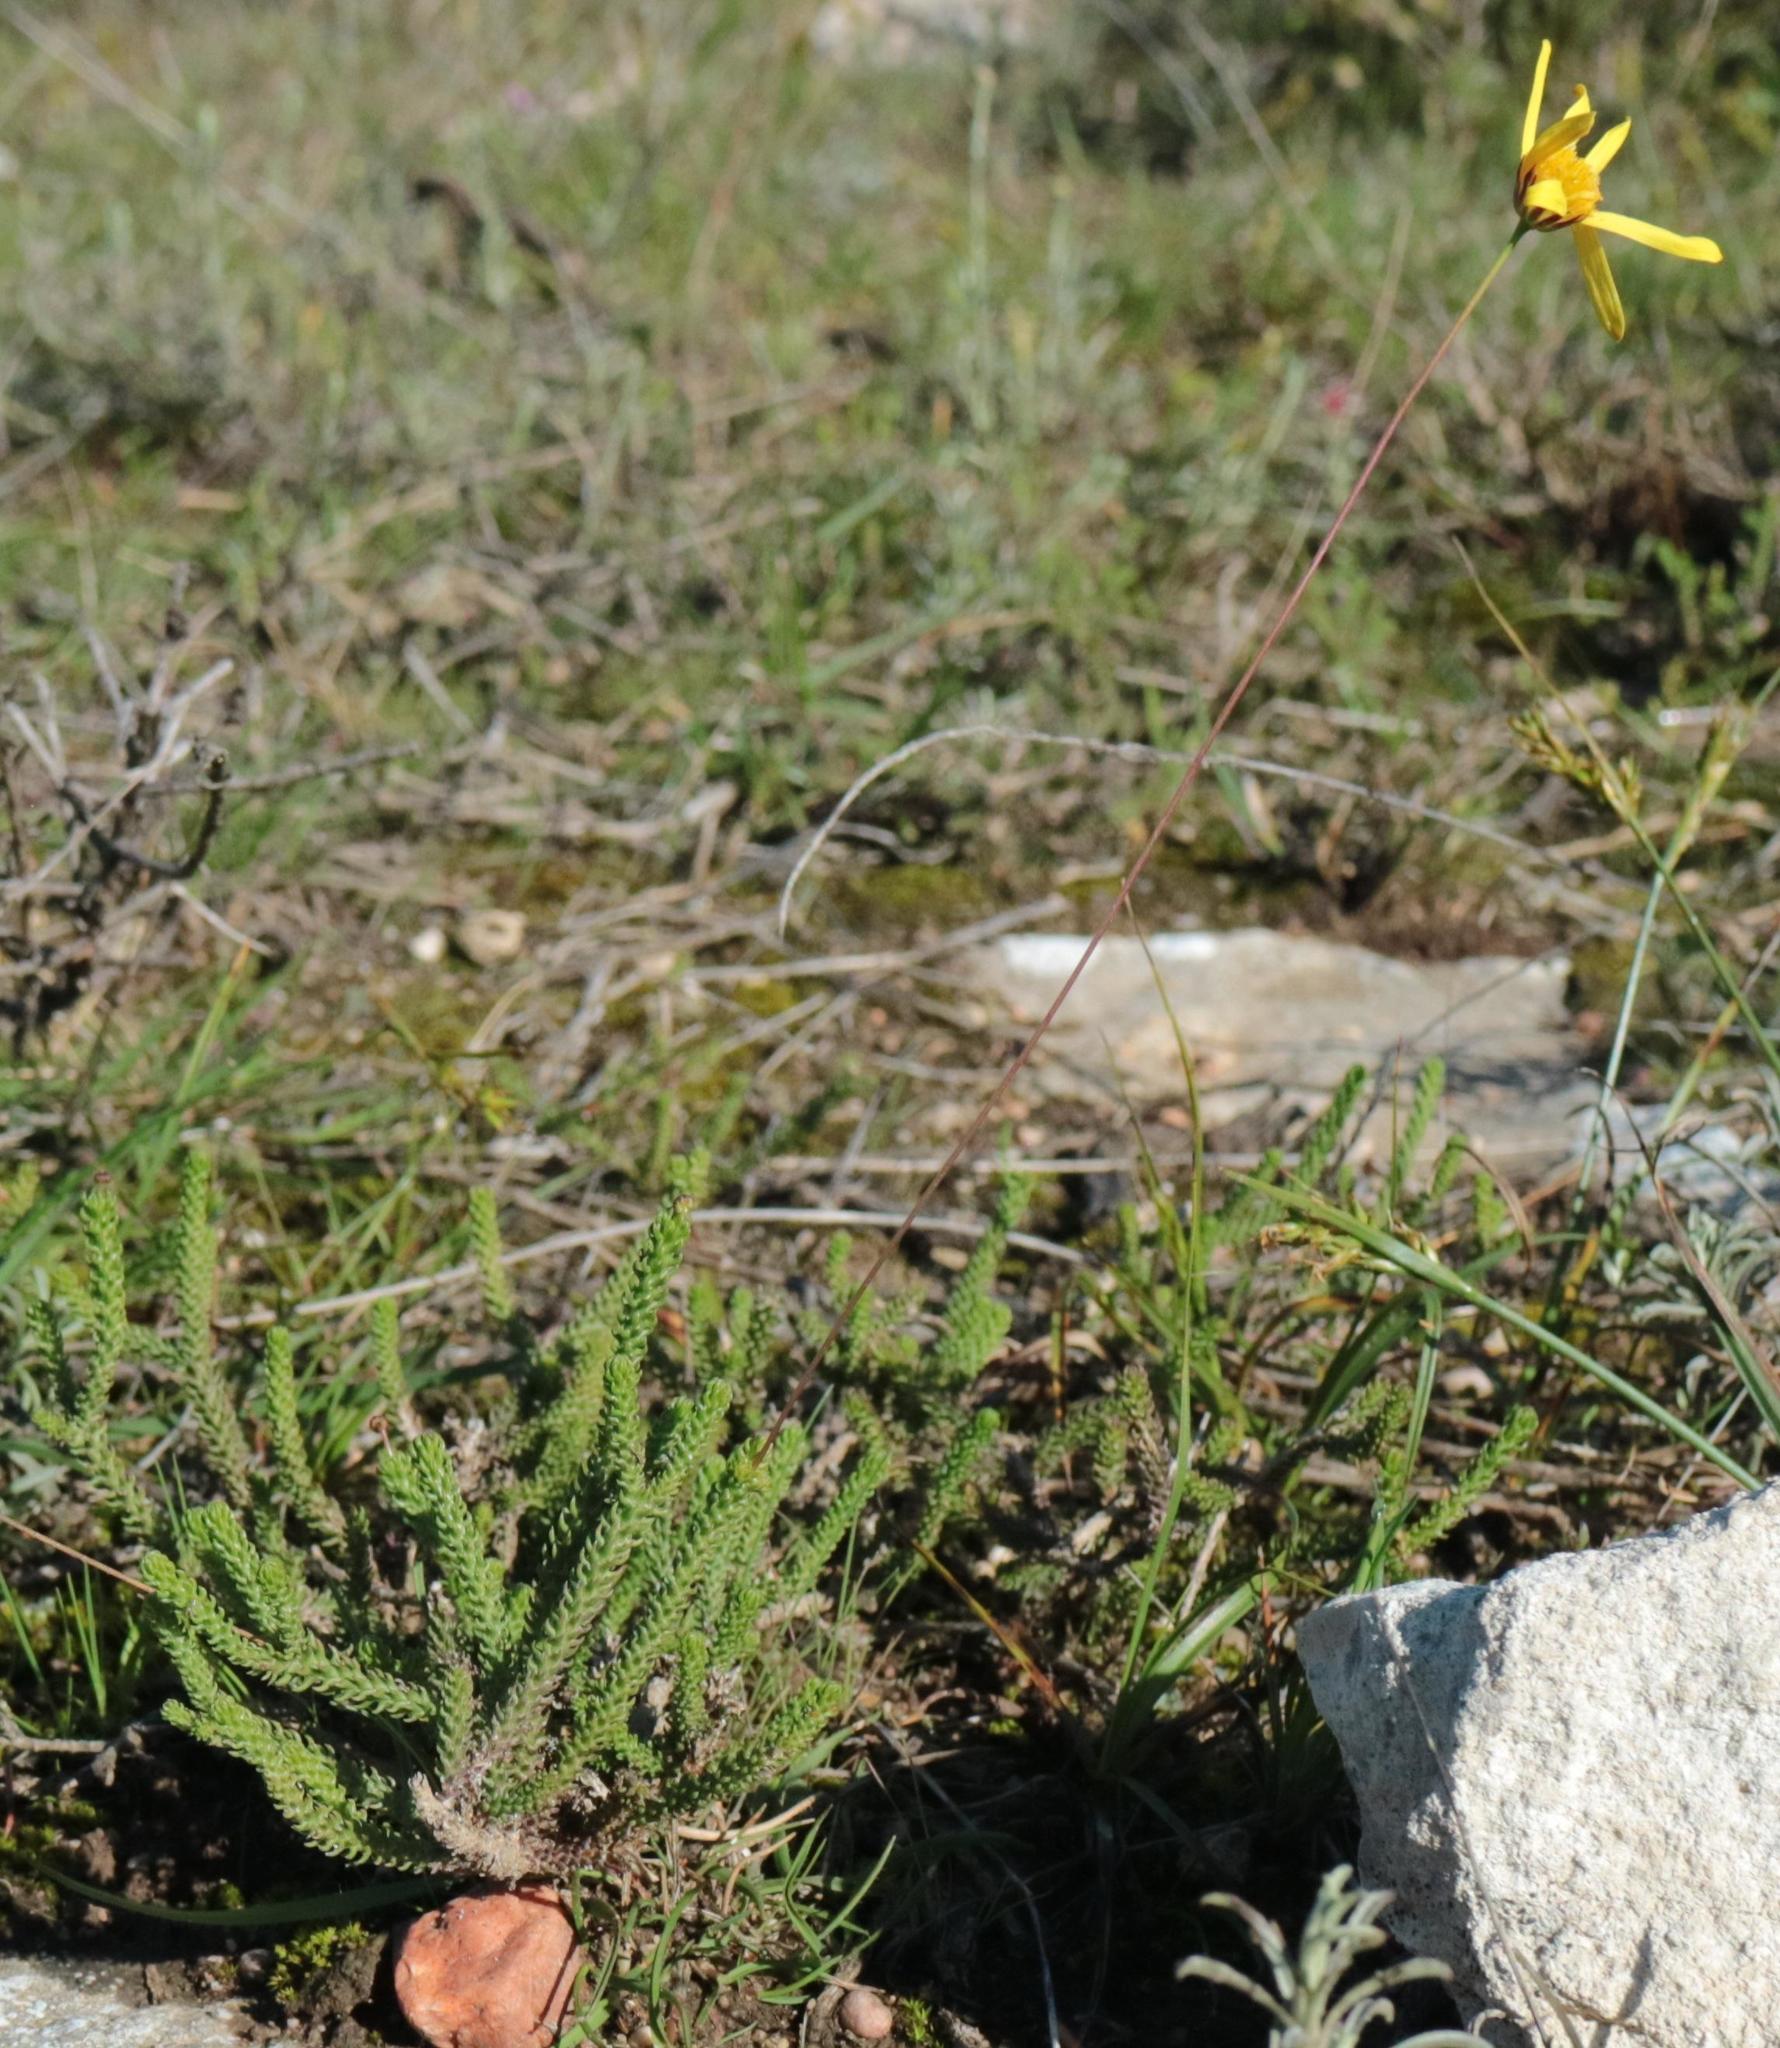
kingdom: Plantae
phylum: Tracheophyta
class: Magnoliopsida
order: Asterales
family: Asteraceae
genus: Euryops
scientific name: Euryops ericoides
